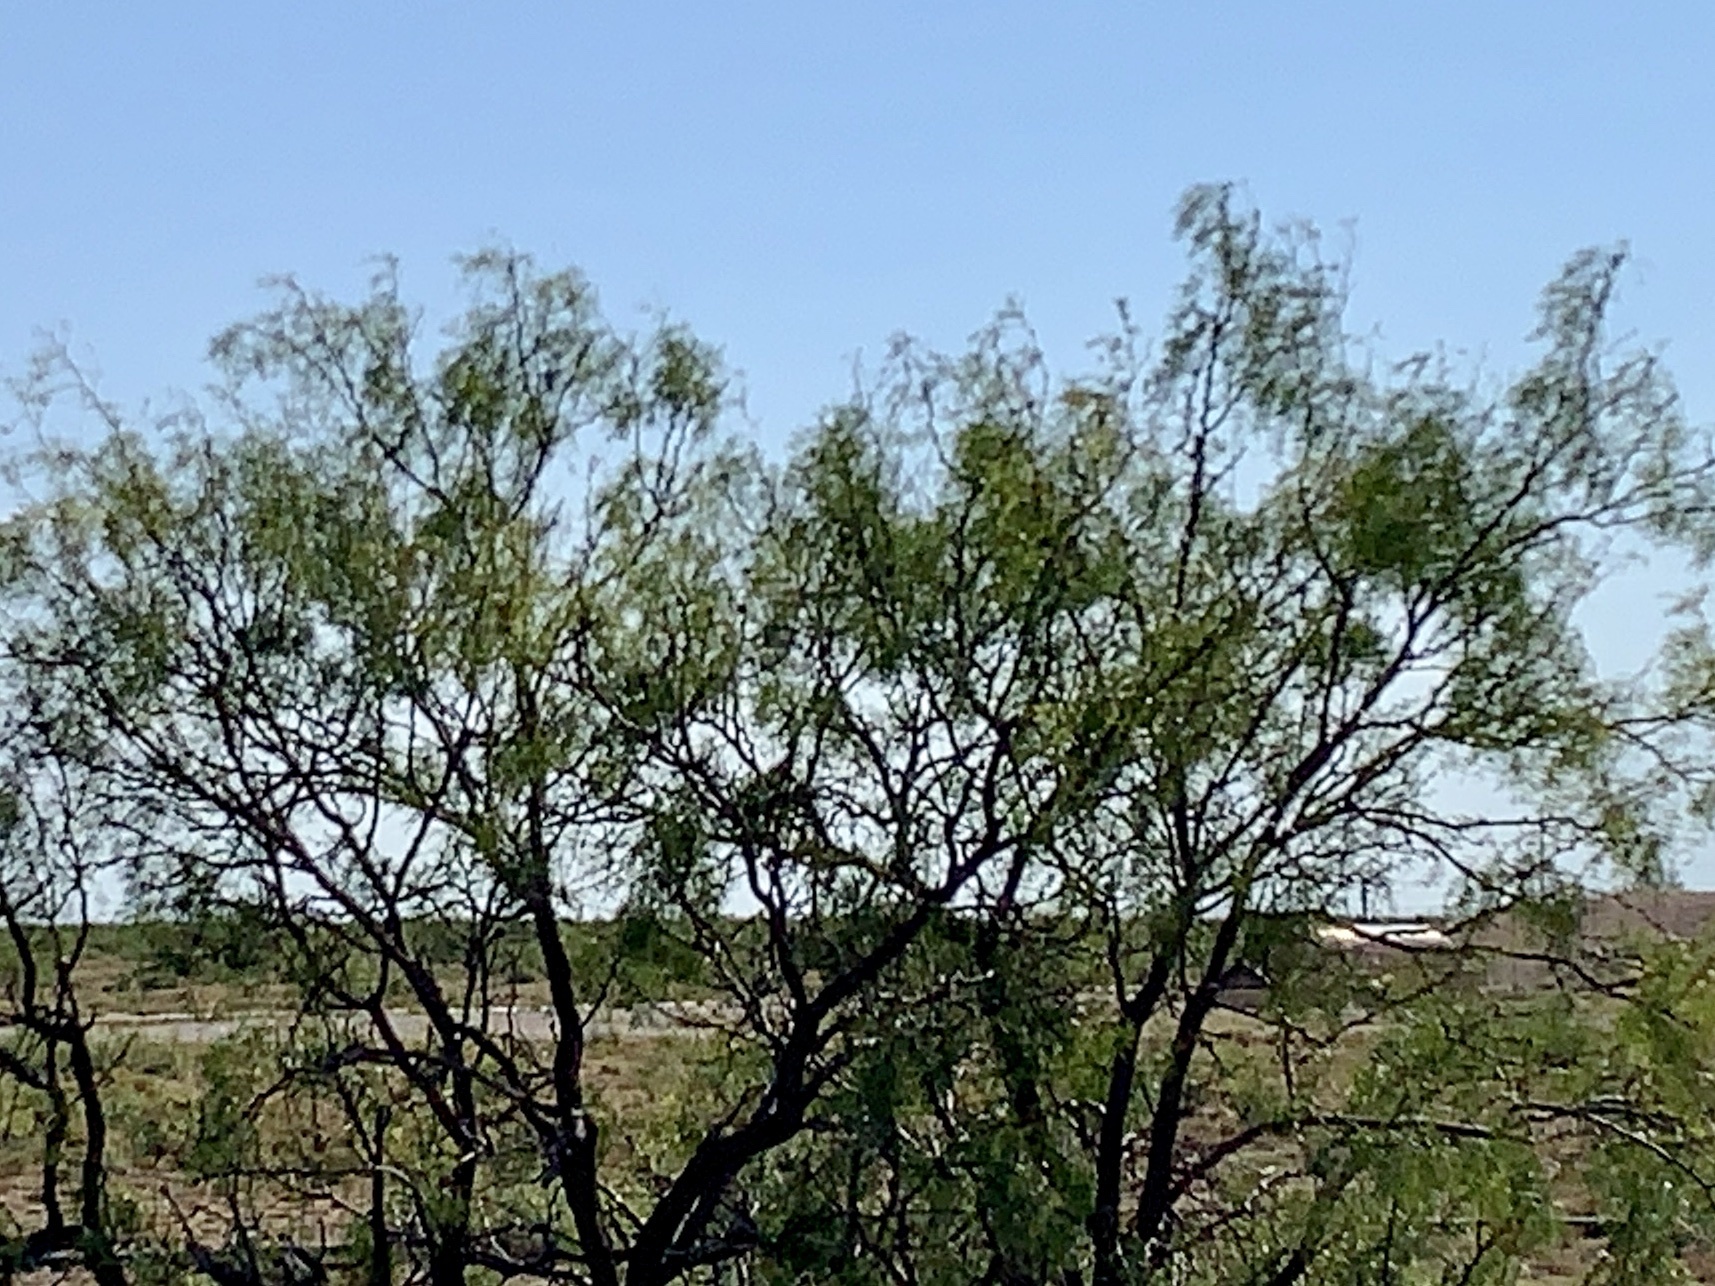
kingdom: Plantae
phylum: Tracheophyta
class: Magnoliopsida
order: Fabales
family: Fabaceae
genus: Prosopis
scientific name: Prosopis glandulosa
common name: Honey mesquite
